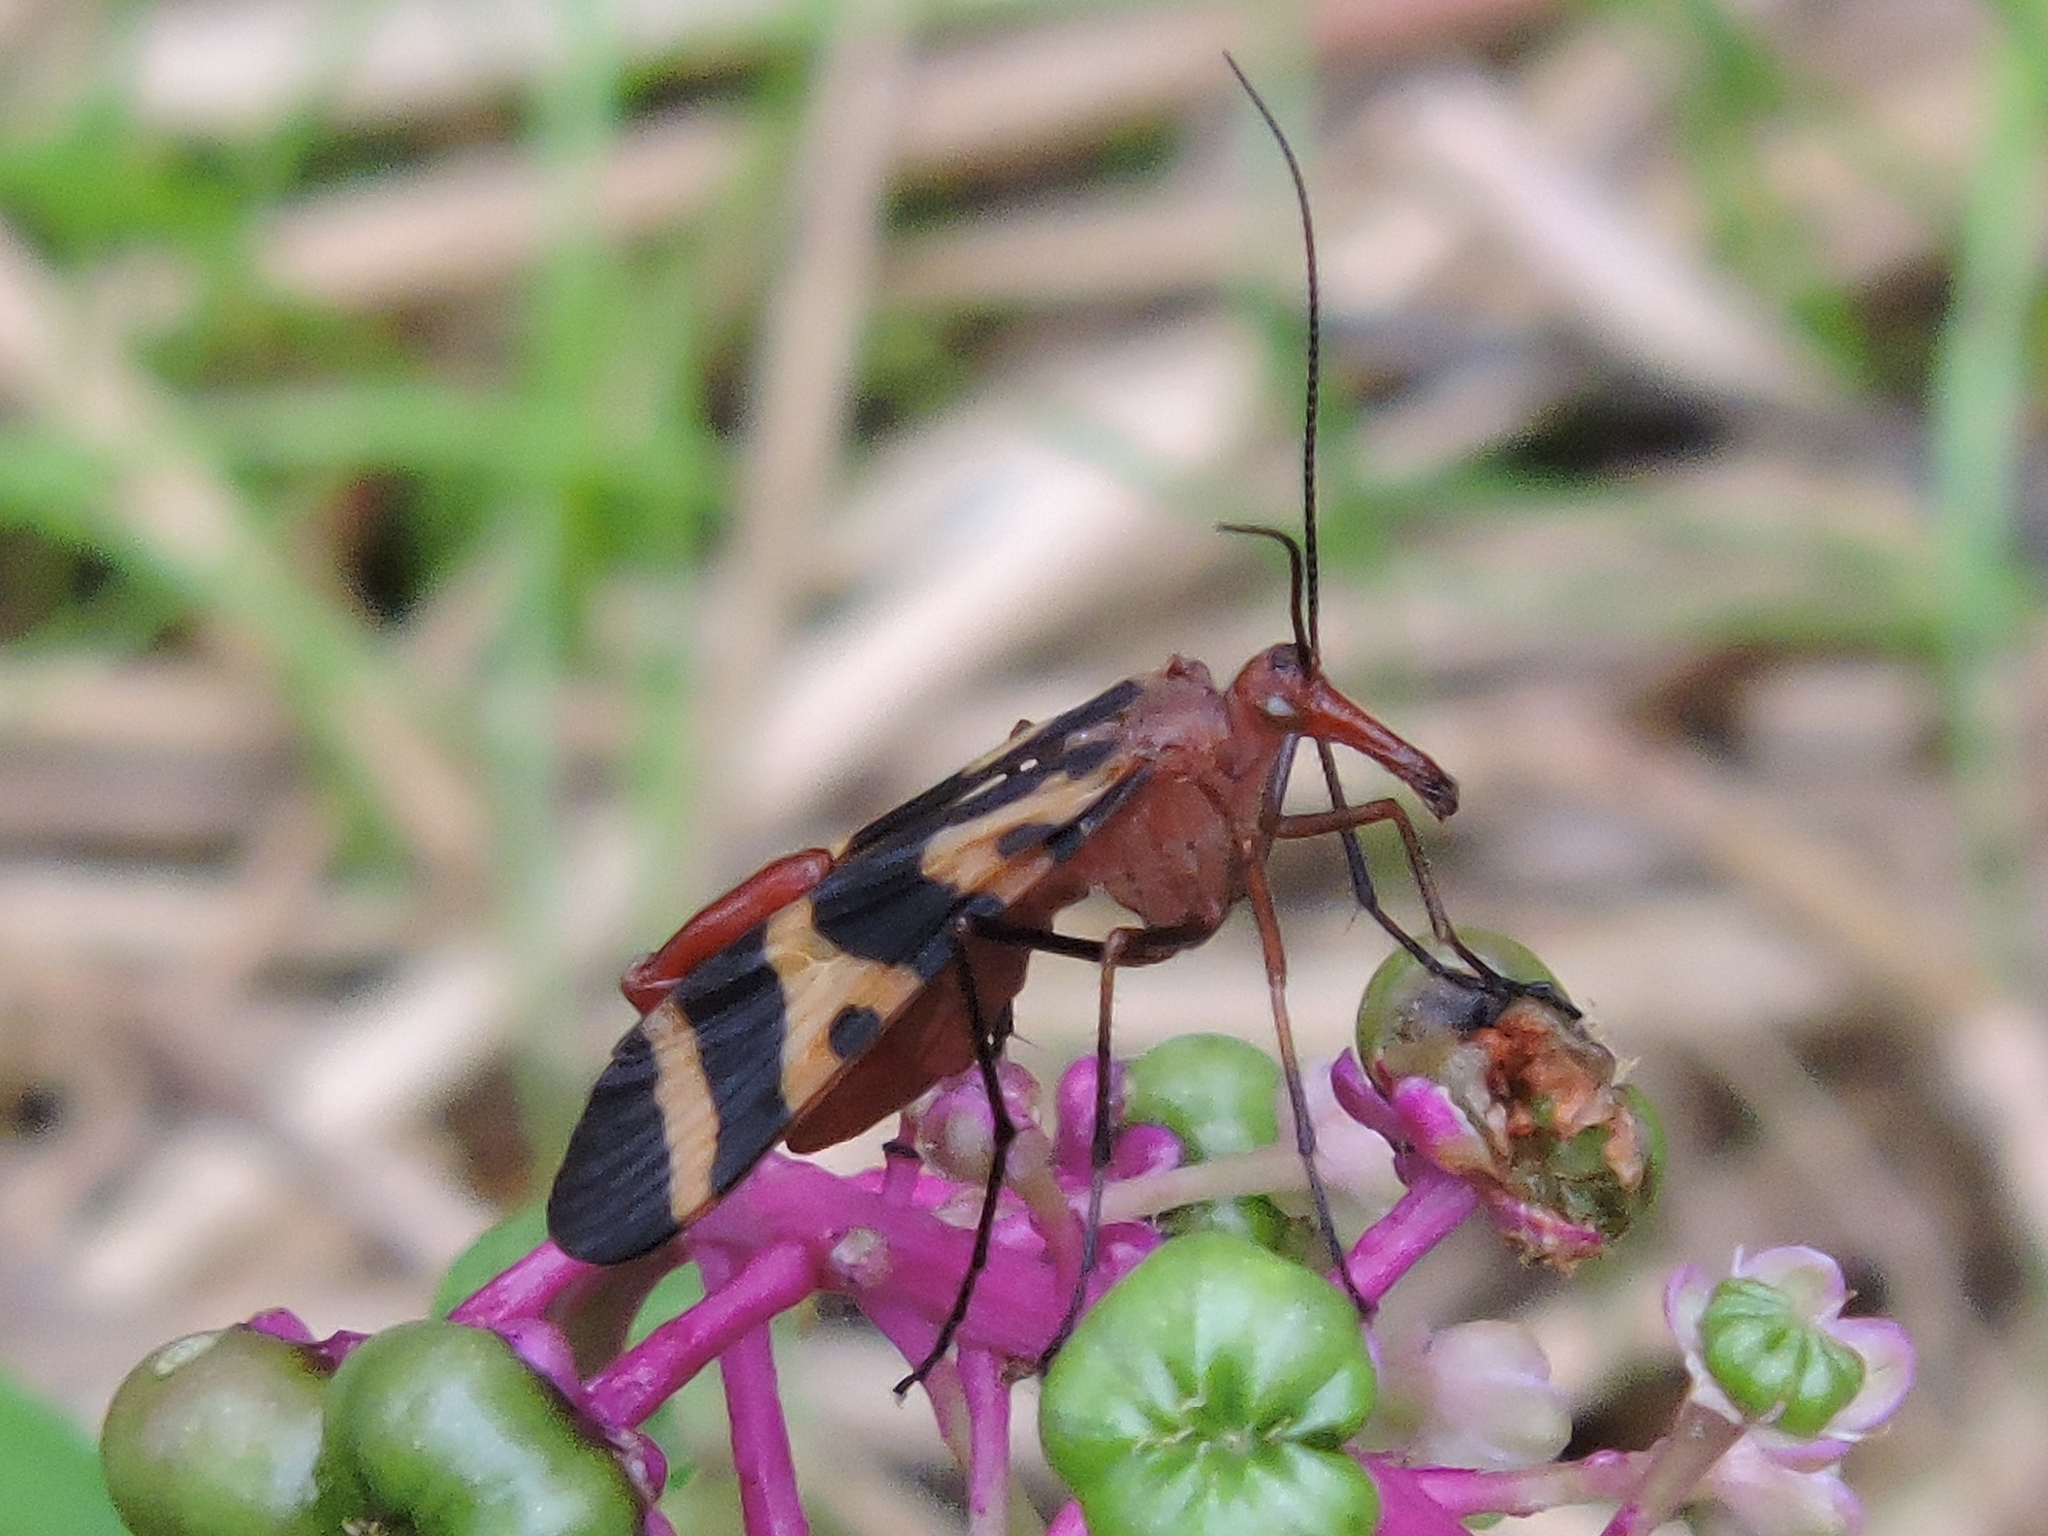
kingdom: Animalia
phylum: Arthropoda
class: Insecta
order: Mecoptera
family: Panorpidae
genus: Panorpa
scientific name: Panorpa nuptialis
